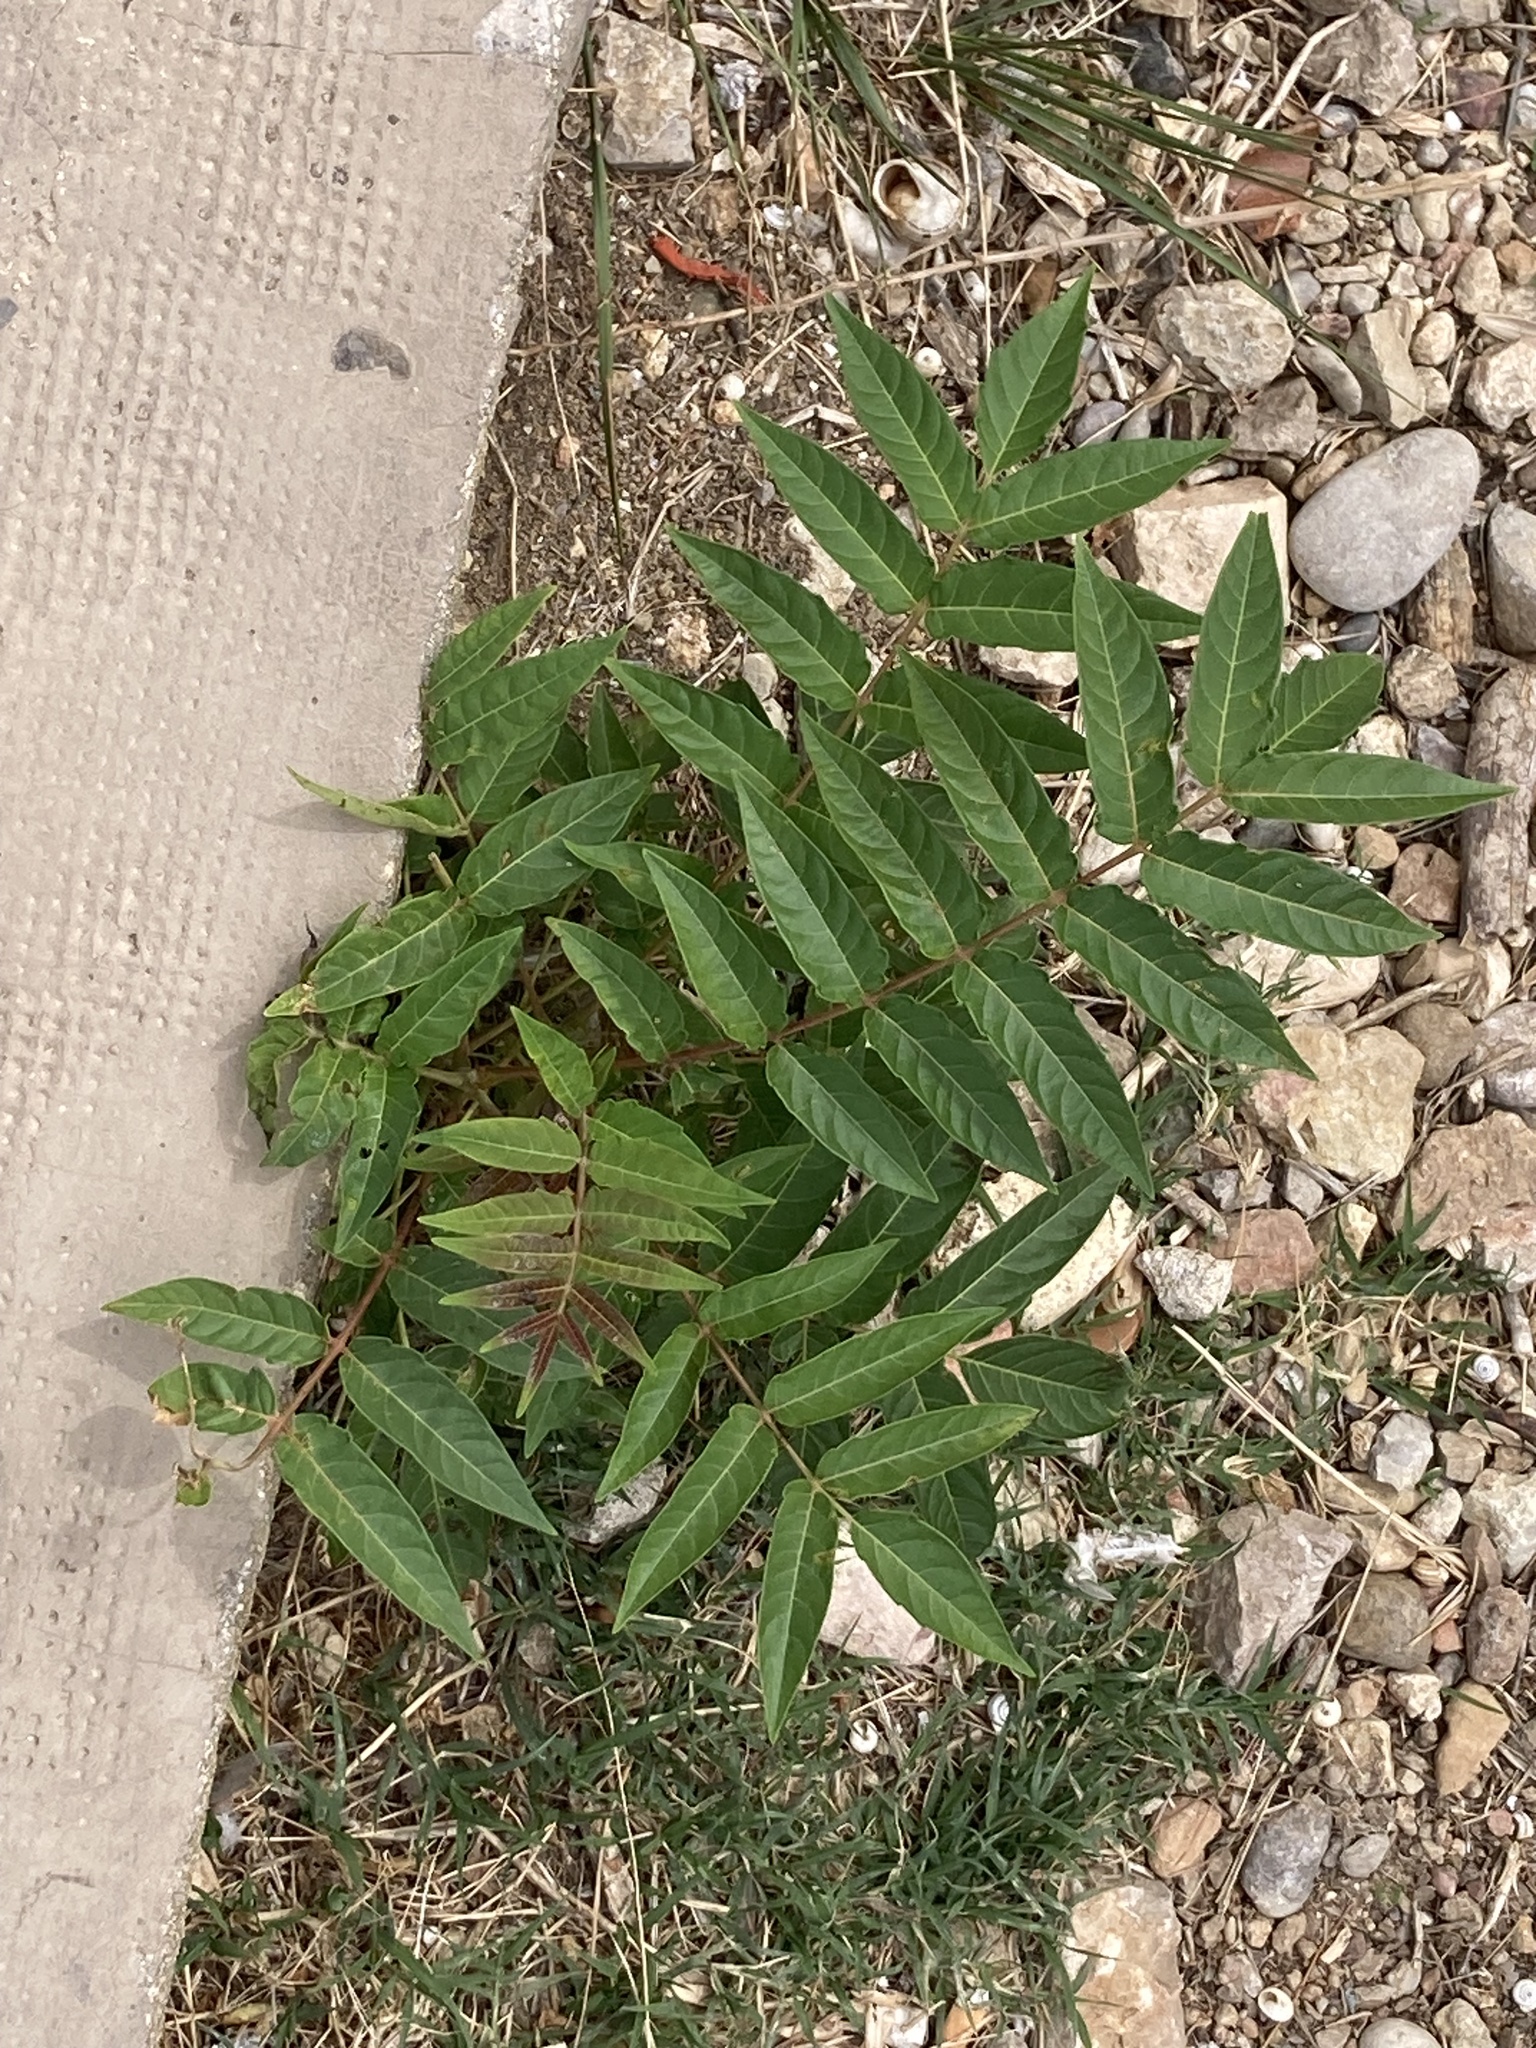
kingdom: Plantae
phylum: Tracheophyta
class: Magnoliopsida
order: Sapindales
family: Simaroubaceae
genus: Ailanthus
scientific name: Ailanthus altissima
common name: Tree-of-heaven
